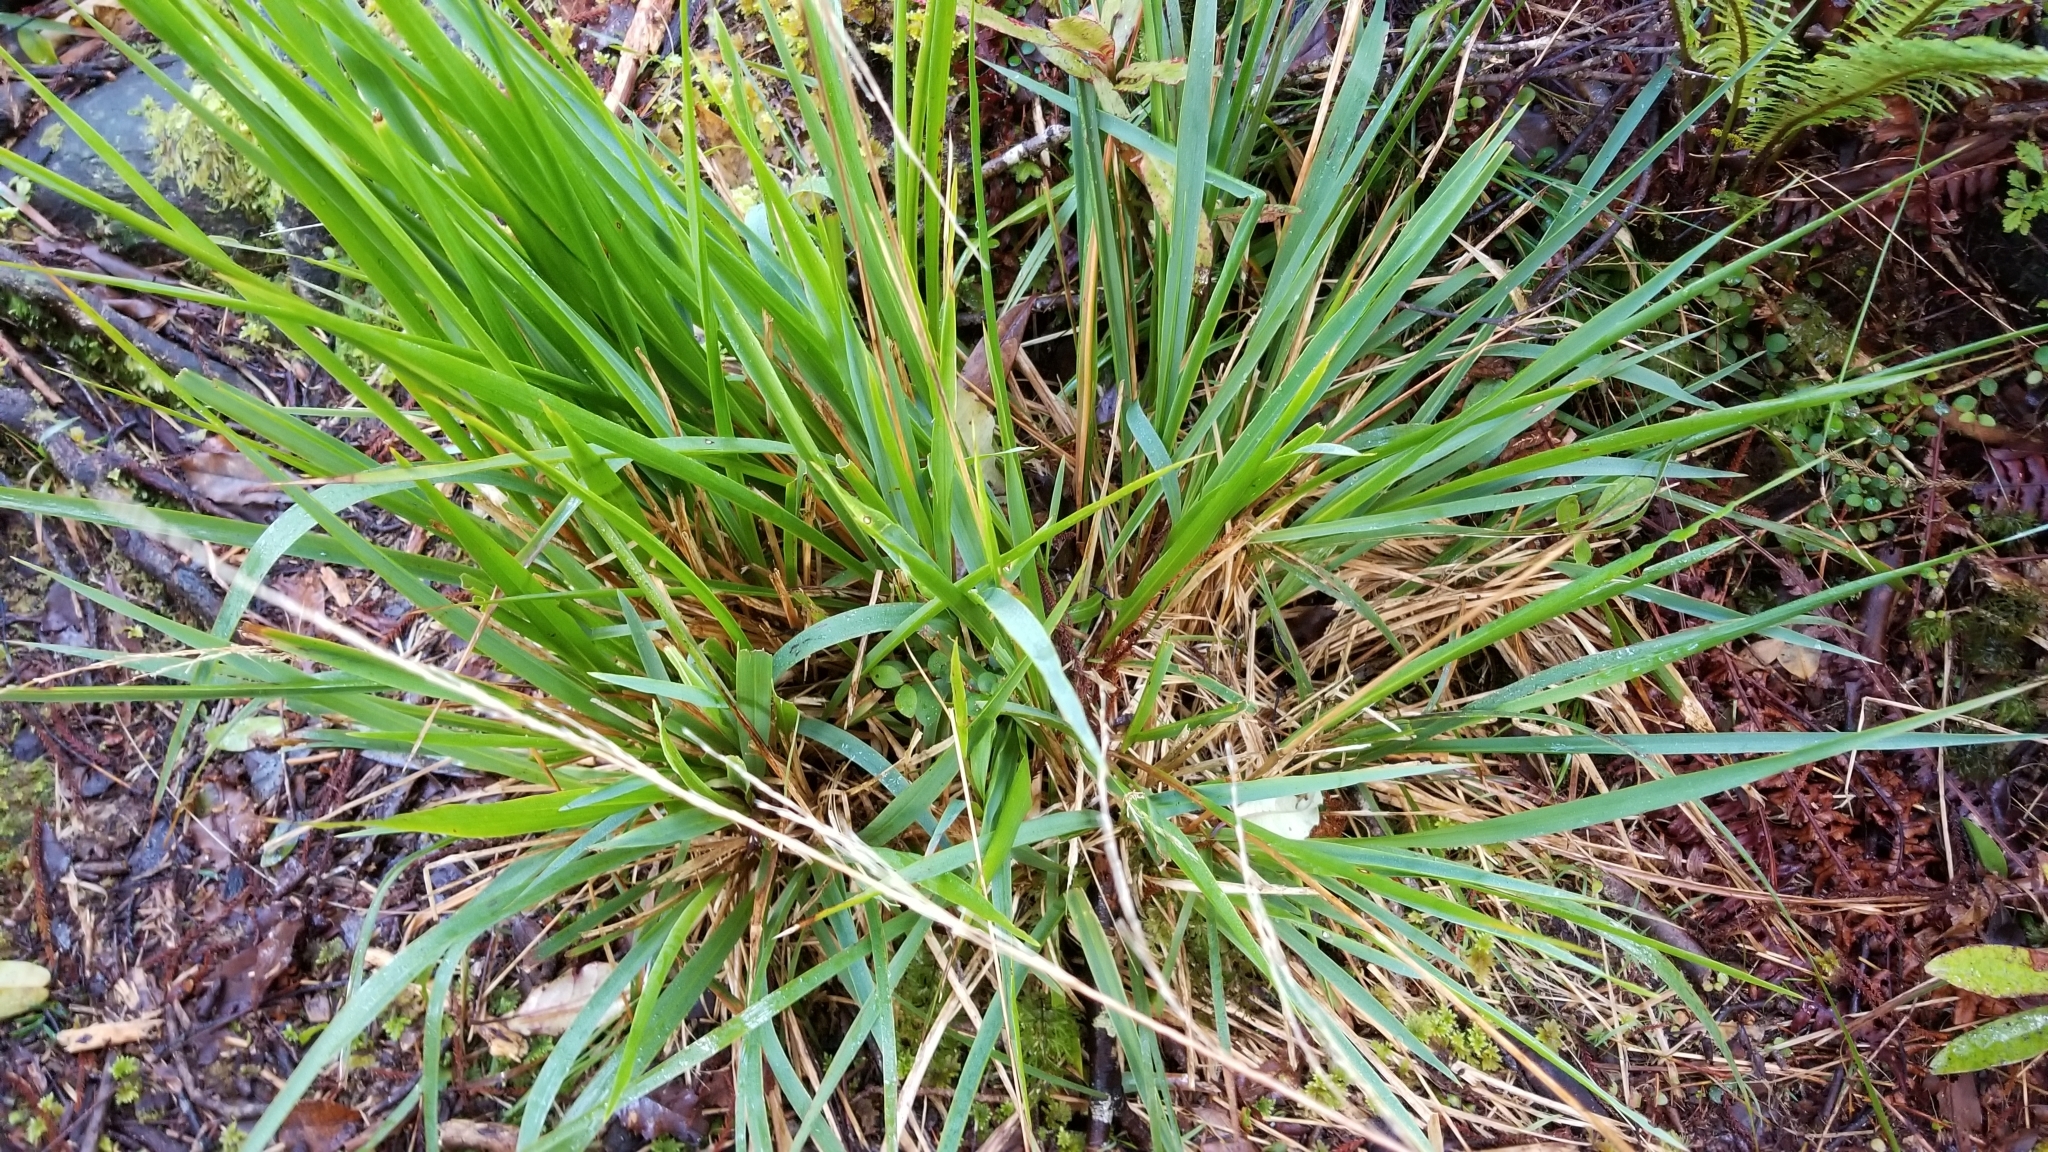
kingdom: Plantae
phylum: Tracheophyta
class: Liliopsida
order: Poales
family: Poaceae
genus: Ehrharta
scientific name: Ehrharta diplax
